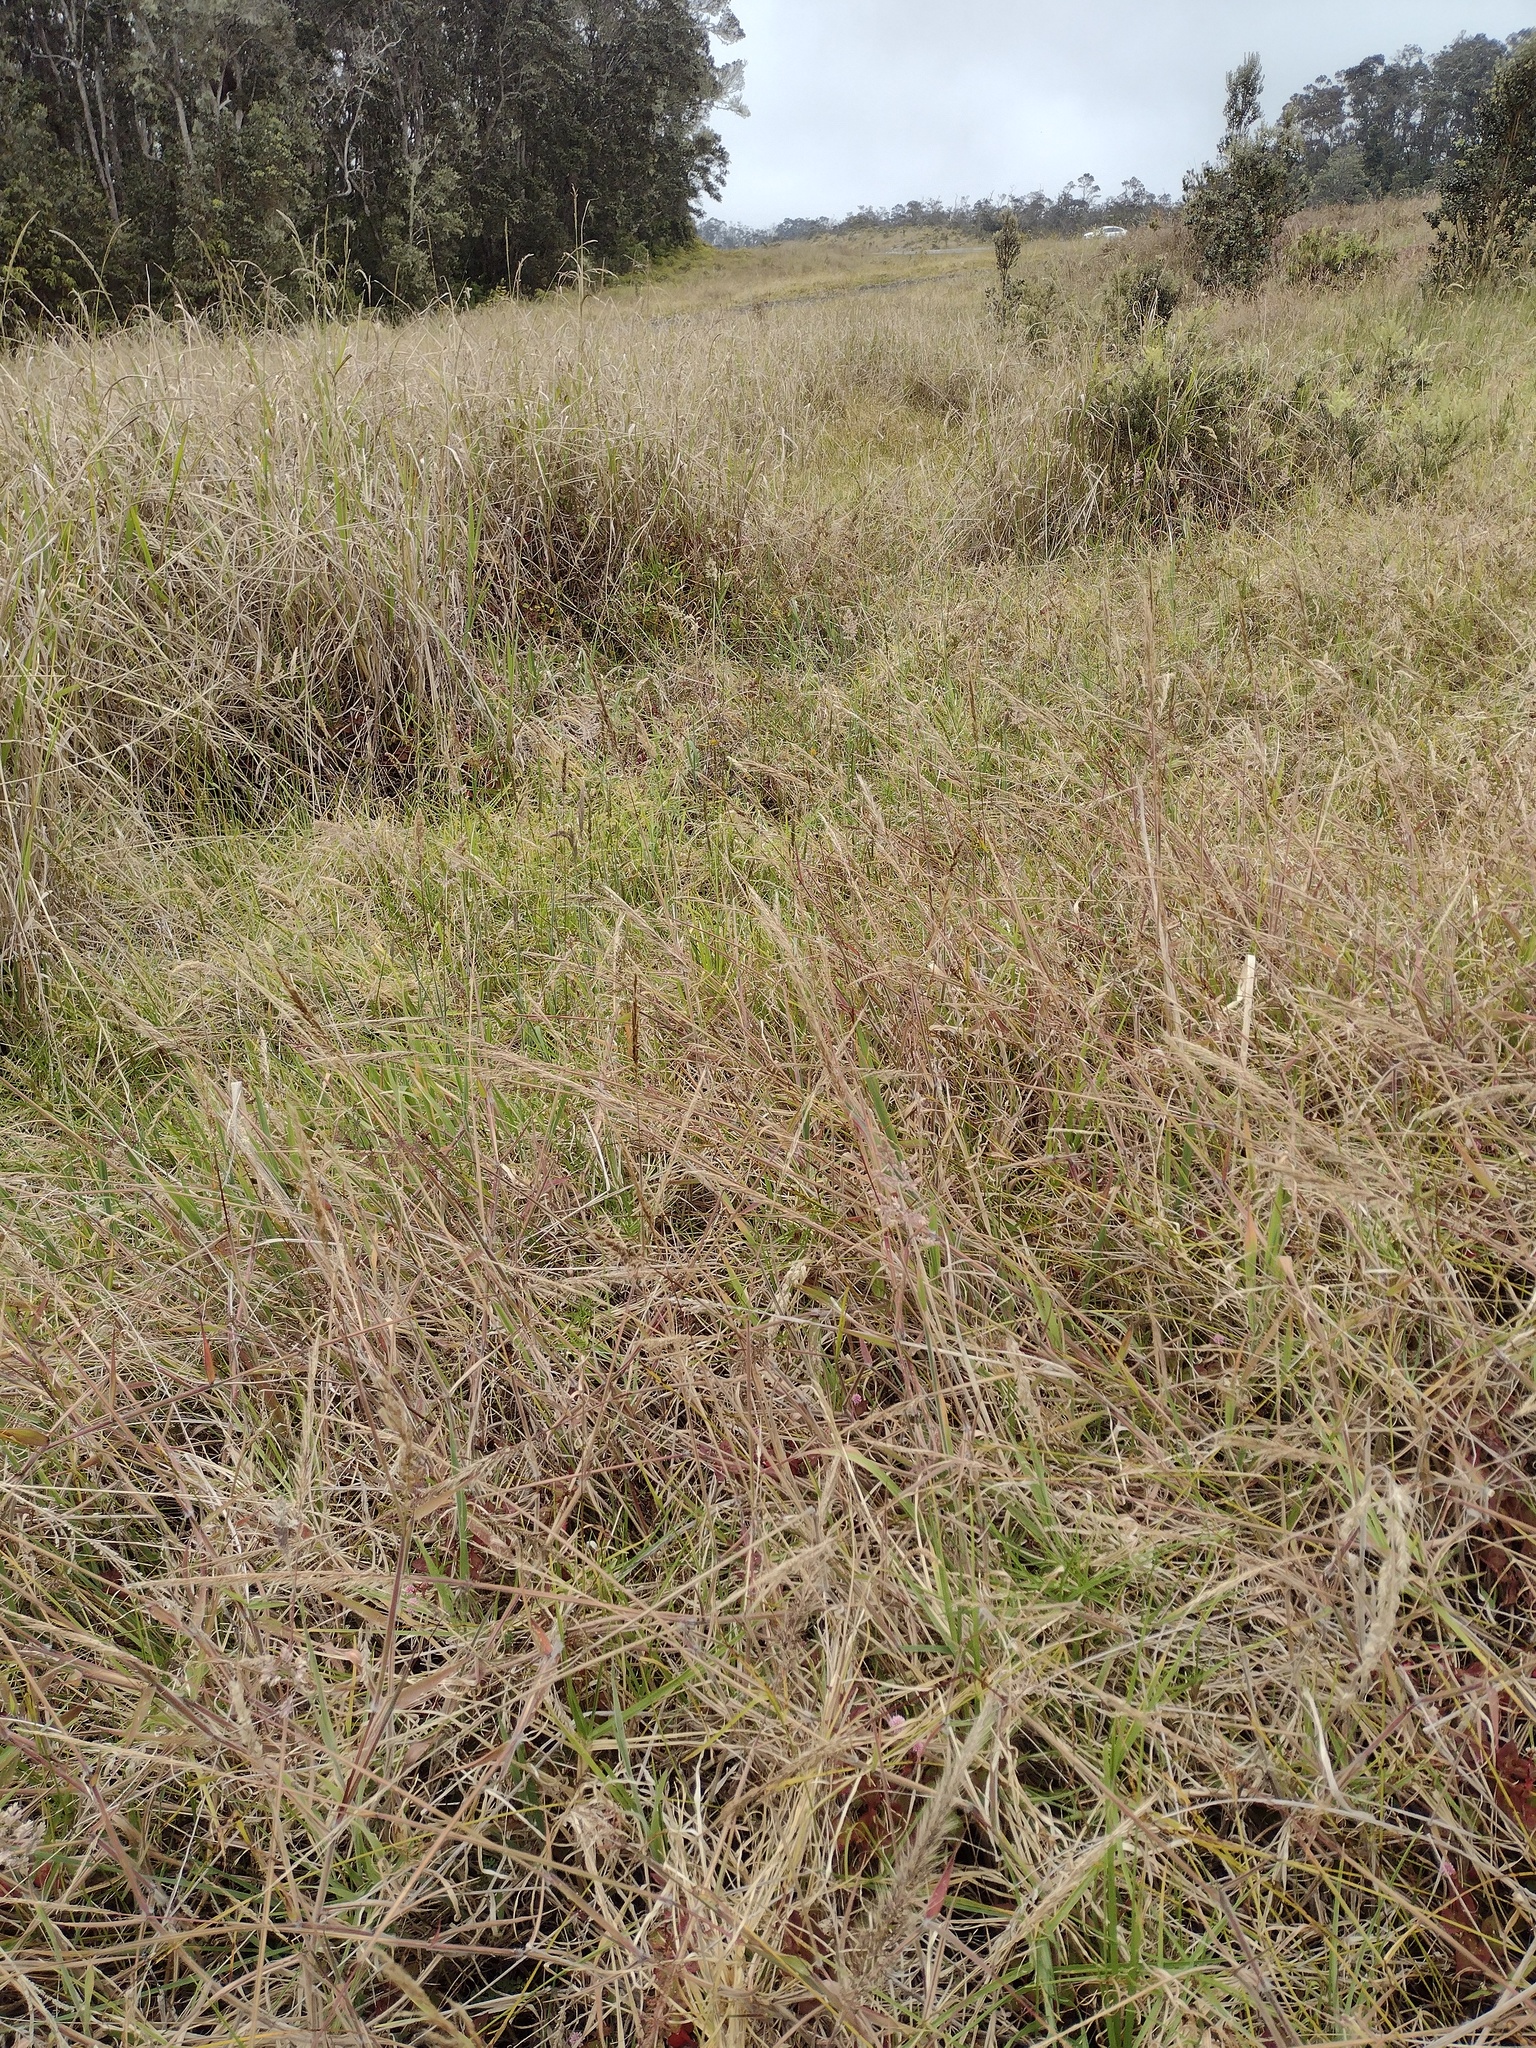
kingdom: Plantae
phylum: Tracheophyta
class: Liliopsida
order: Poales
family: Poaceae
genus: Melinis
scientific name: Melinis minutiflora
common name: Molassesgrass
